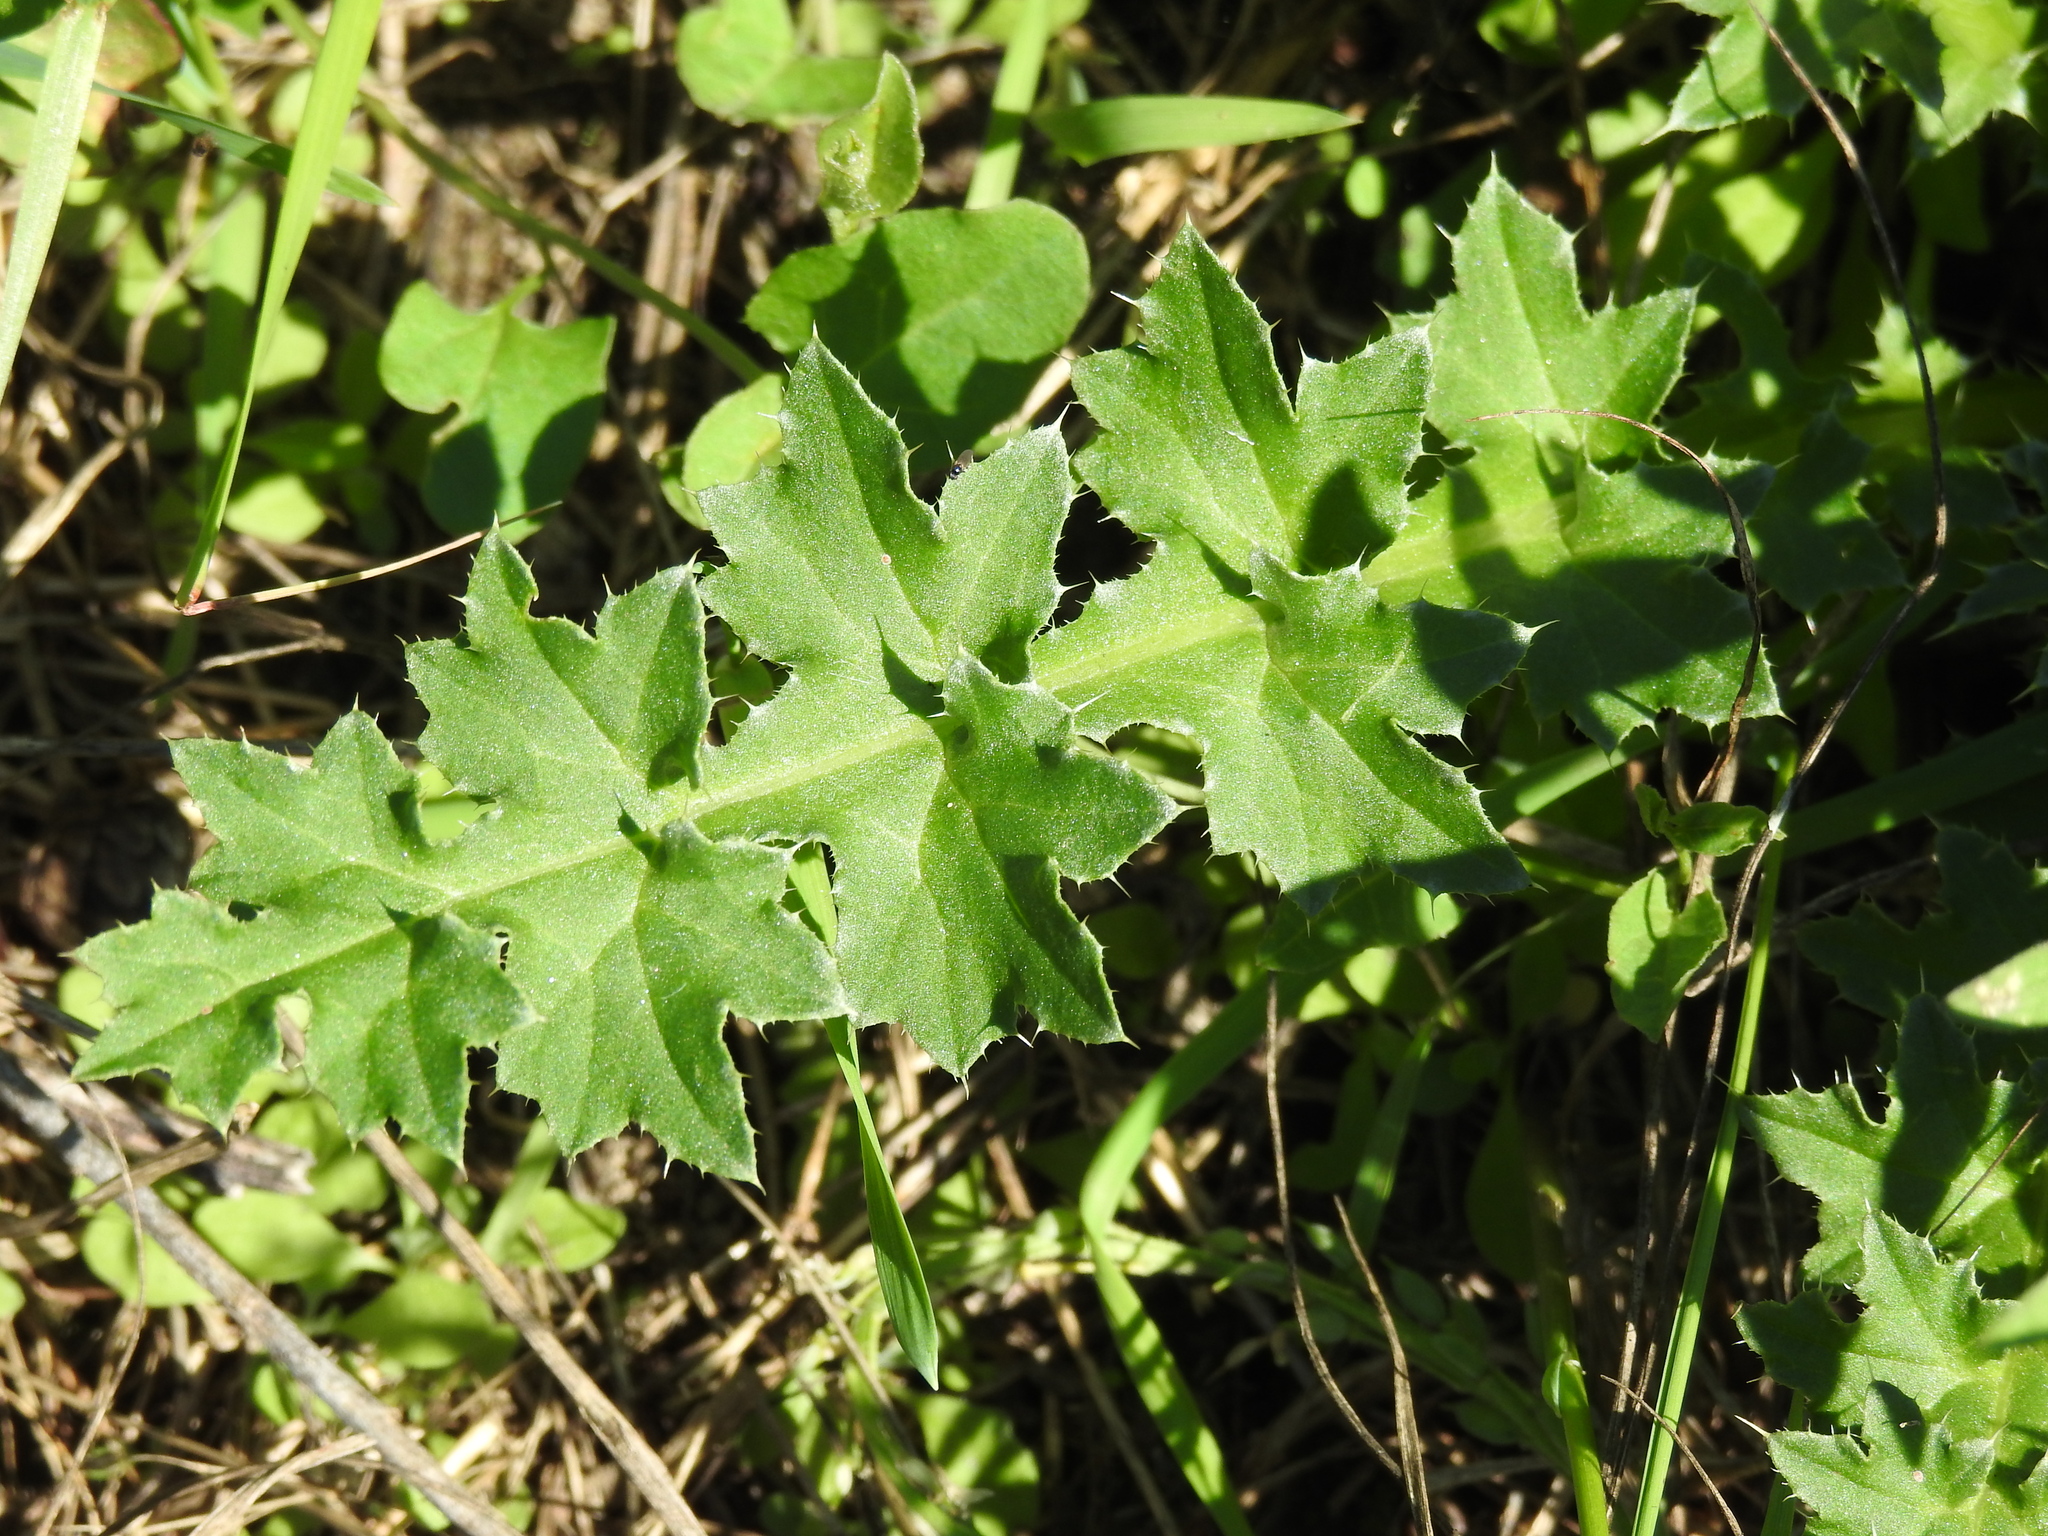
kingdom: Plantae
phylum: Tracheophyta
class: Magnoliopsida
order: Asterales
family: Asteraceae
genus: Carduus
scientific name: Carduus acanthoides
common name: Plumeless thistle
